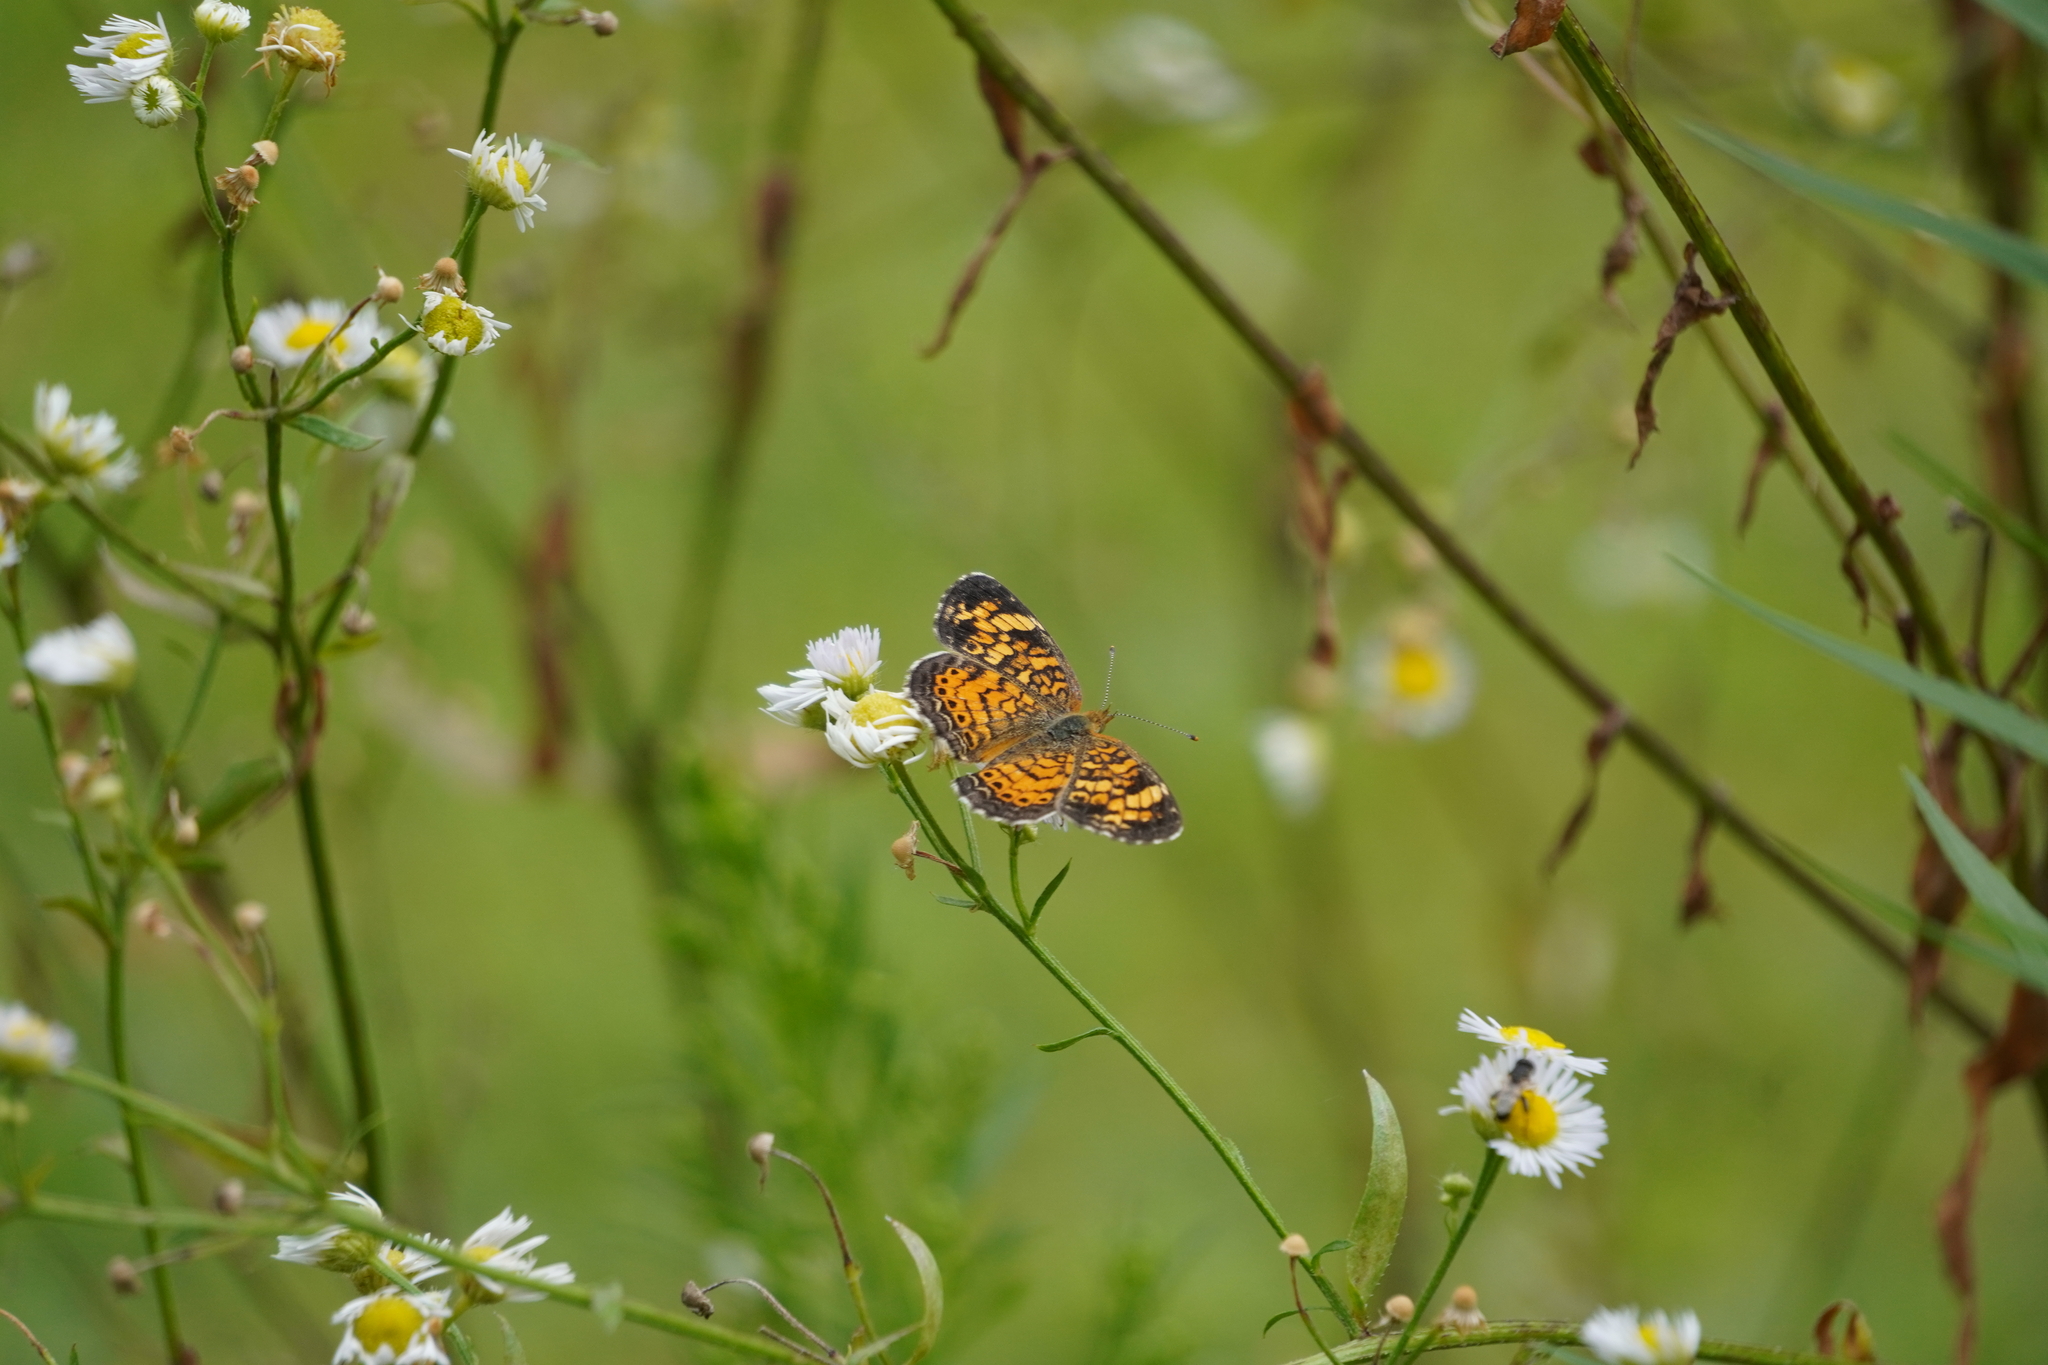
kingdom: Animalia
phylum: Arthropoda
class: Insecta
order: Lepidoptera
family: Nymphalidae
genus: Phyciodes
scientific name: Phyciodes tharos
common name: Pearl crescent
